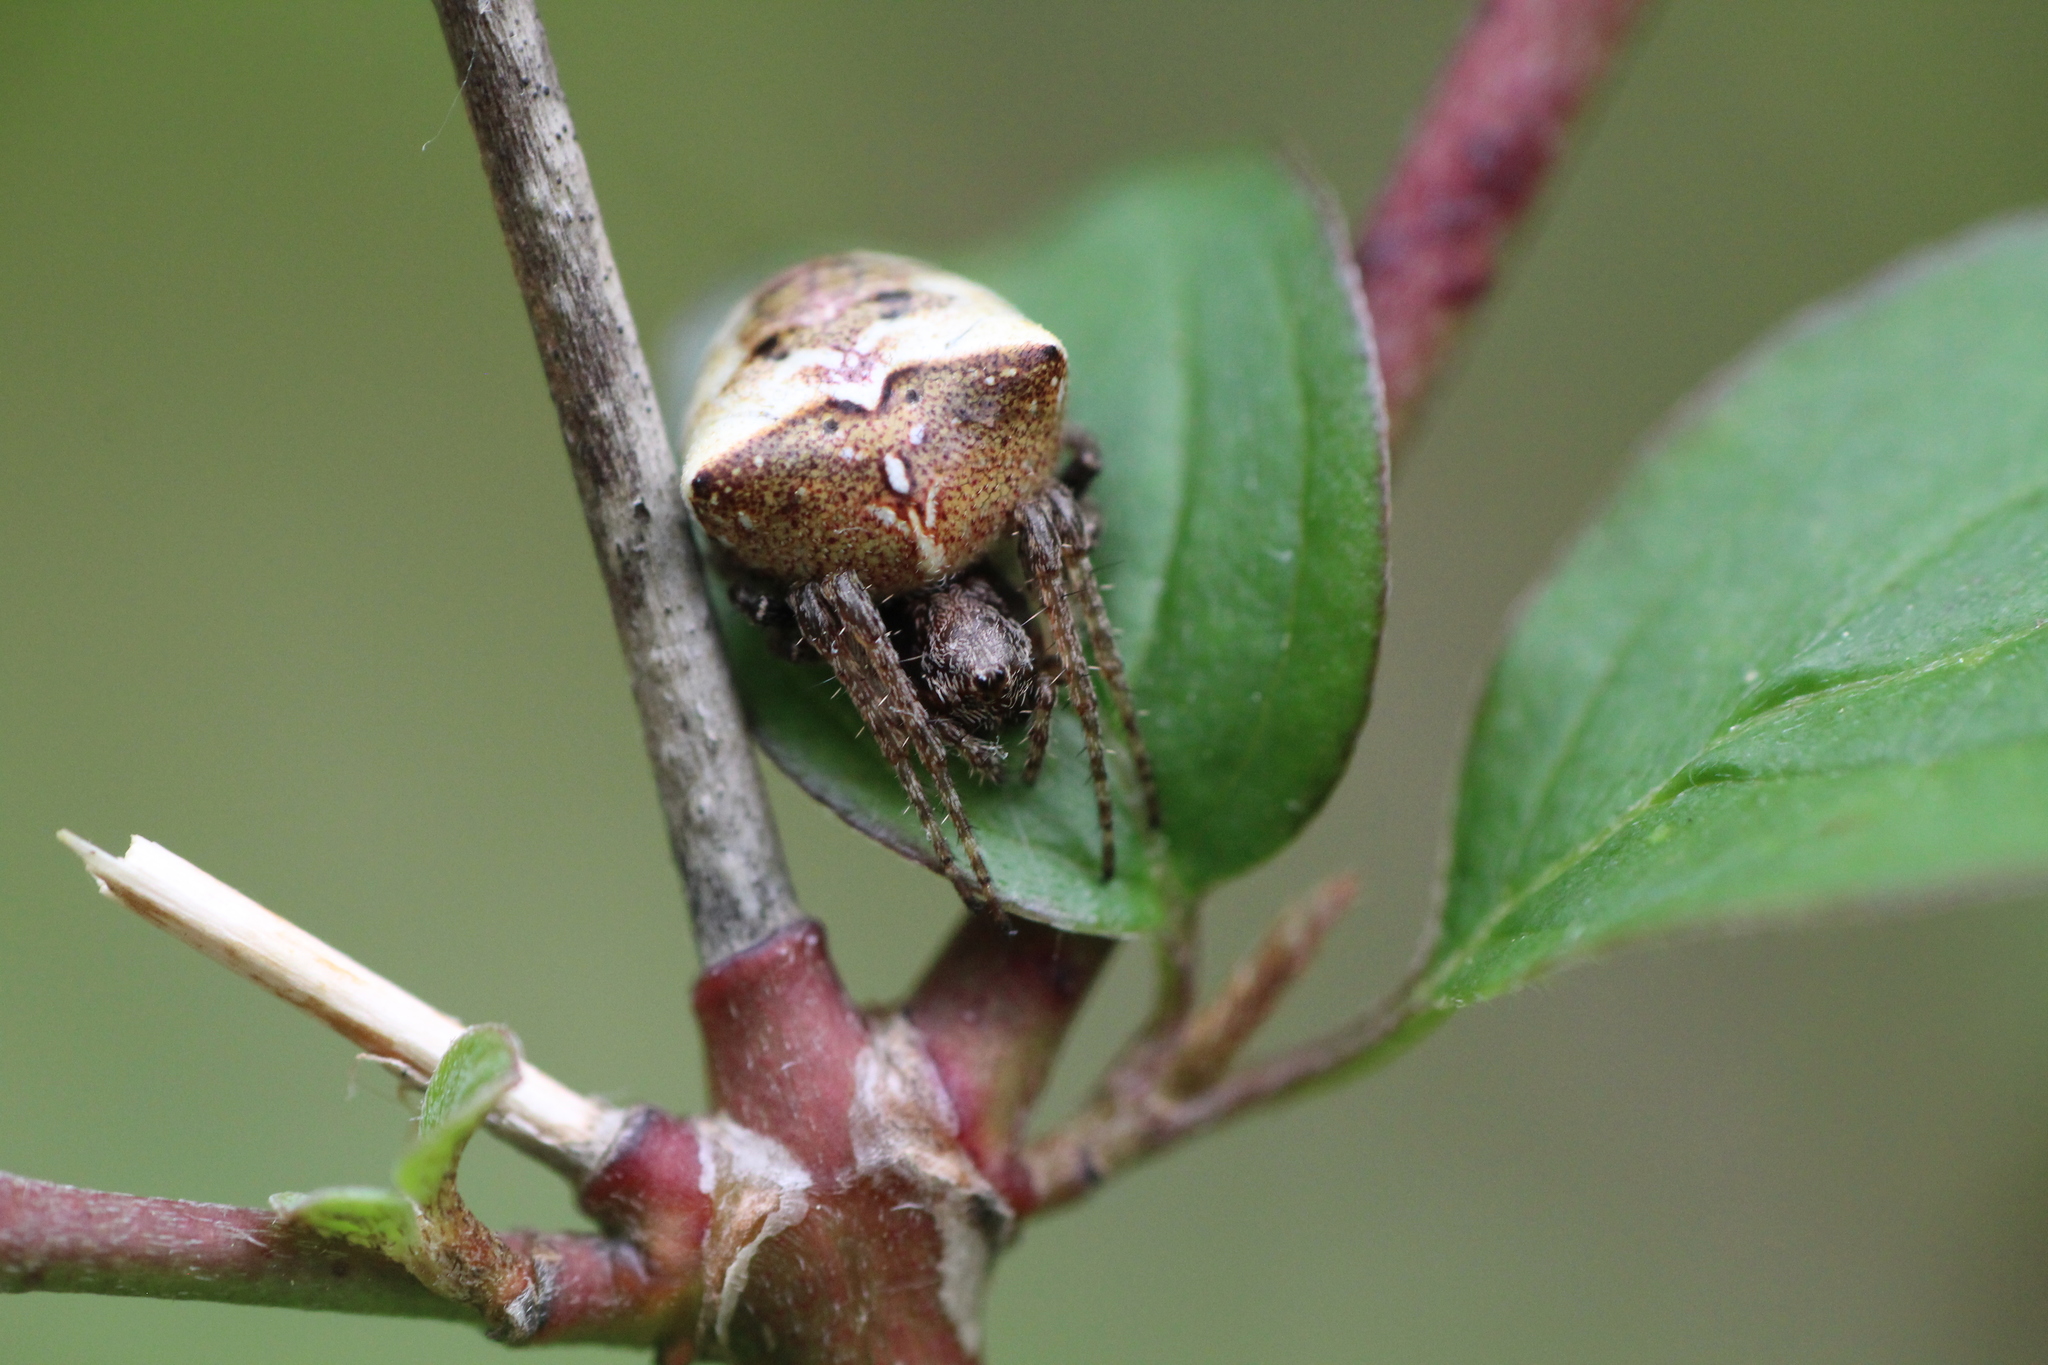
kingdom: Animalia
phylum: Arthropoda
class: Arachnida
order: Araneae
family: Araneidae
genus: Gibbaranea
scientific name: Gibbaranea bituberculata
